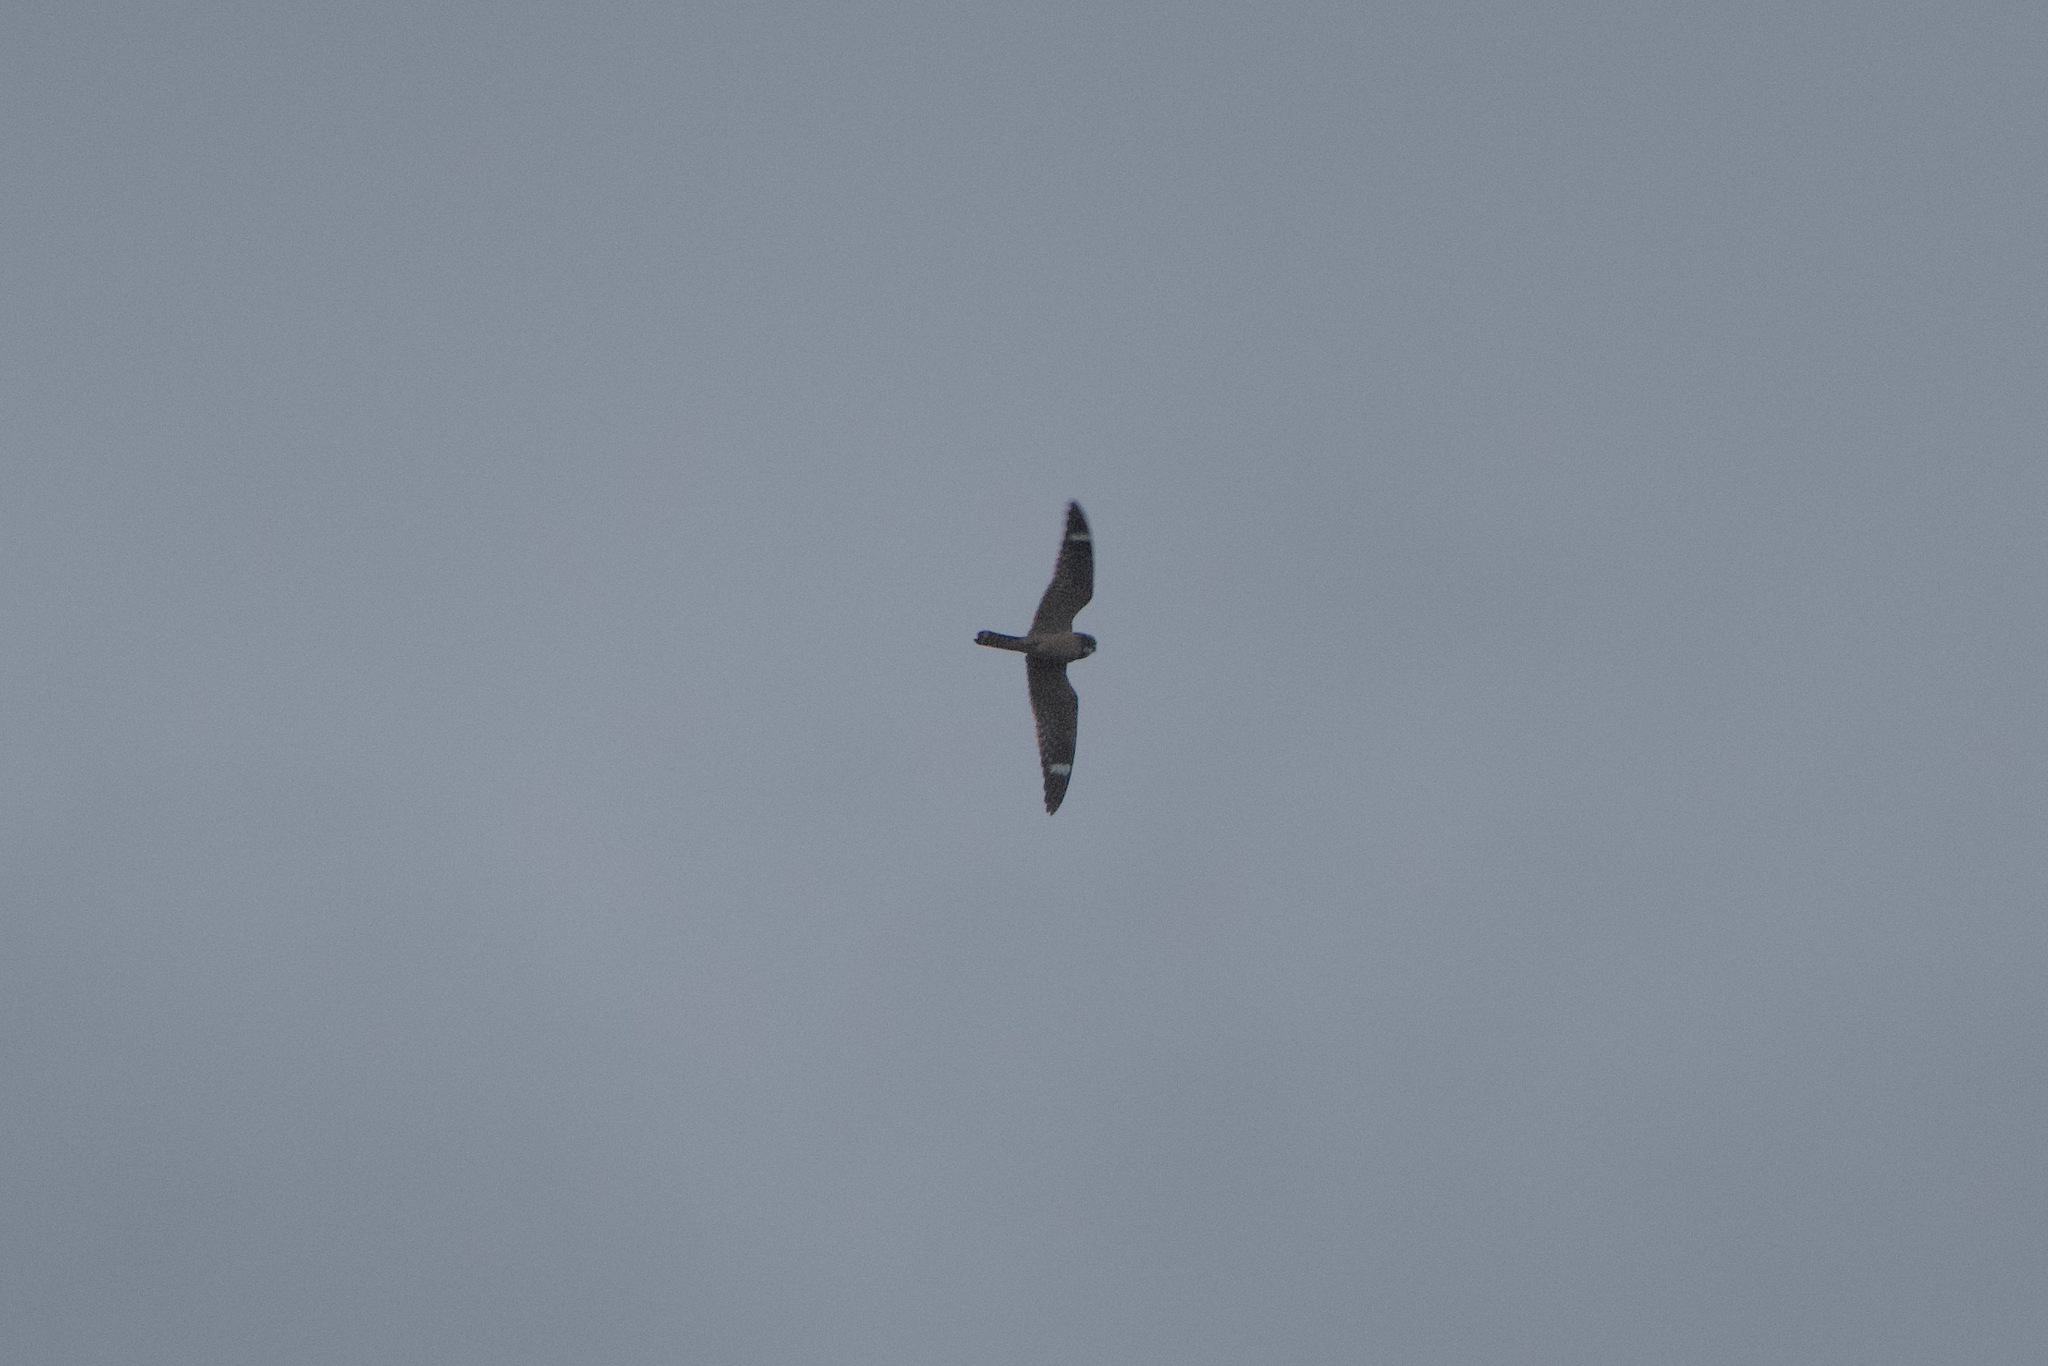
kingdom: Animalia
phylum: Chordata
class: Aves
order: Caprimulgiformes
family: Caprimulgidae
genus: Chordeiles
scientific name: Chordeiles acutipennis
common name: Lesser nighthawk
